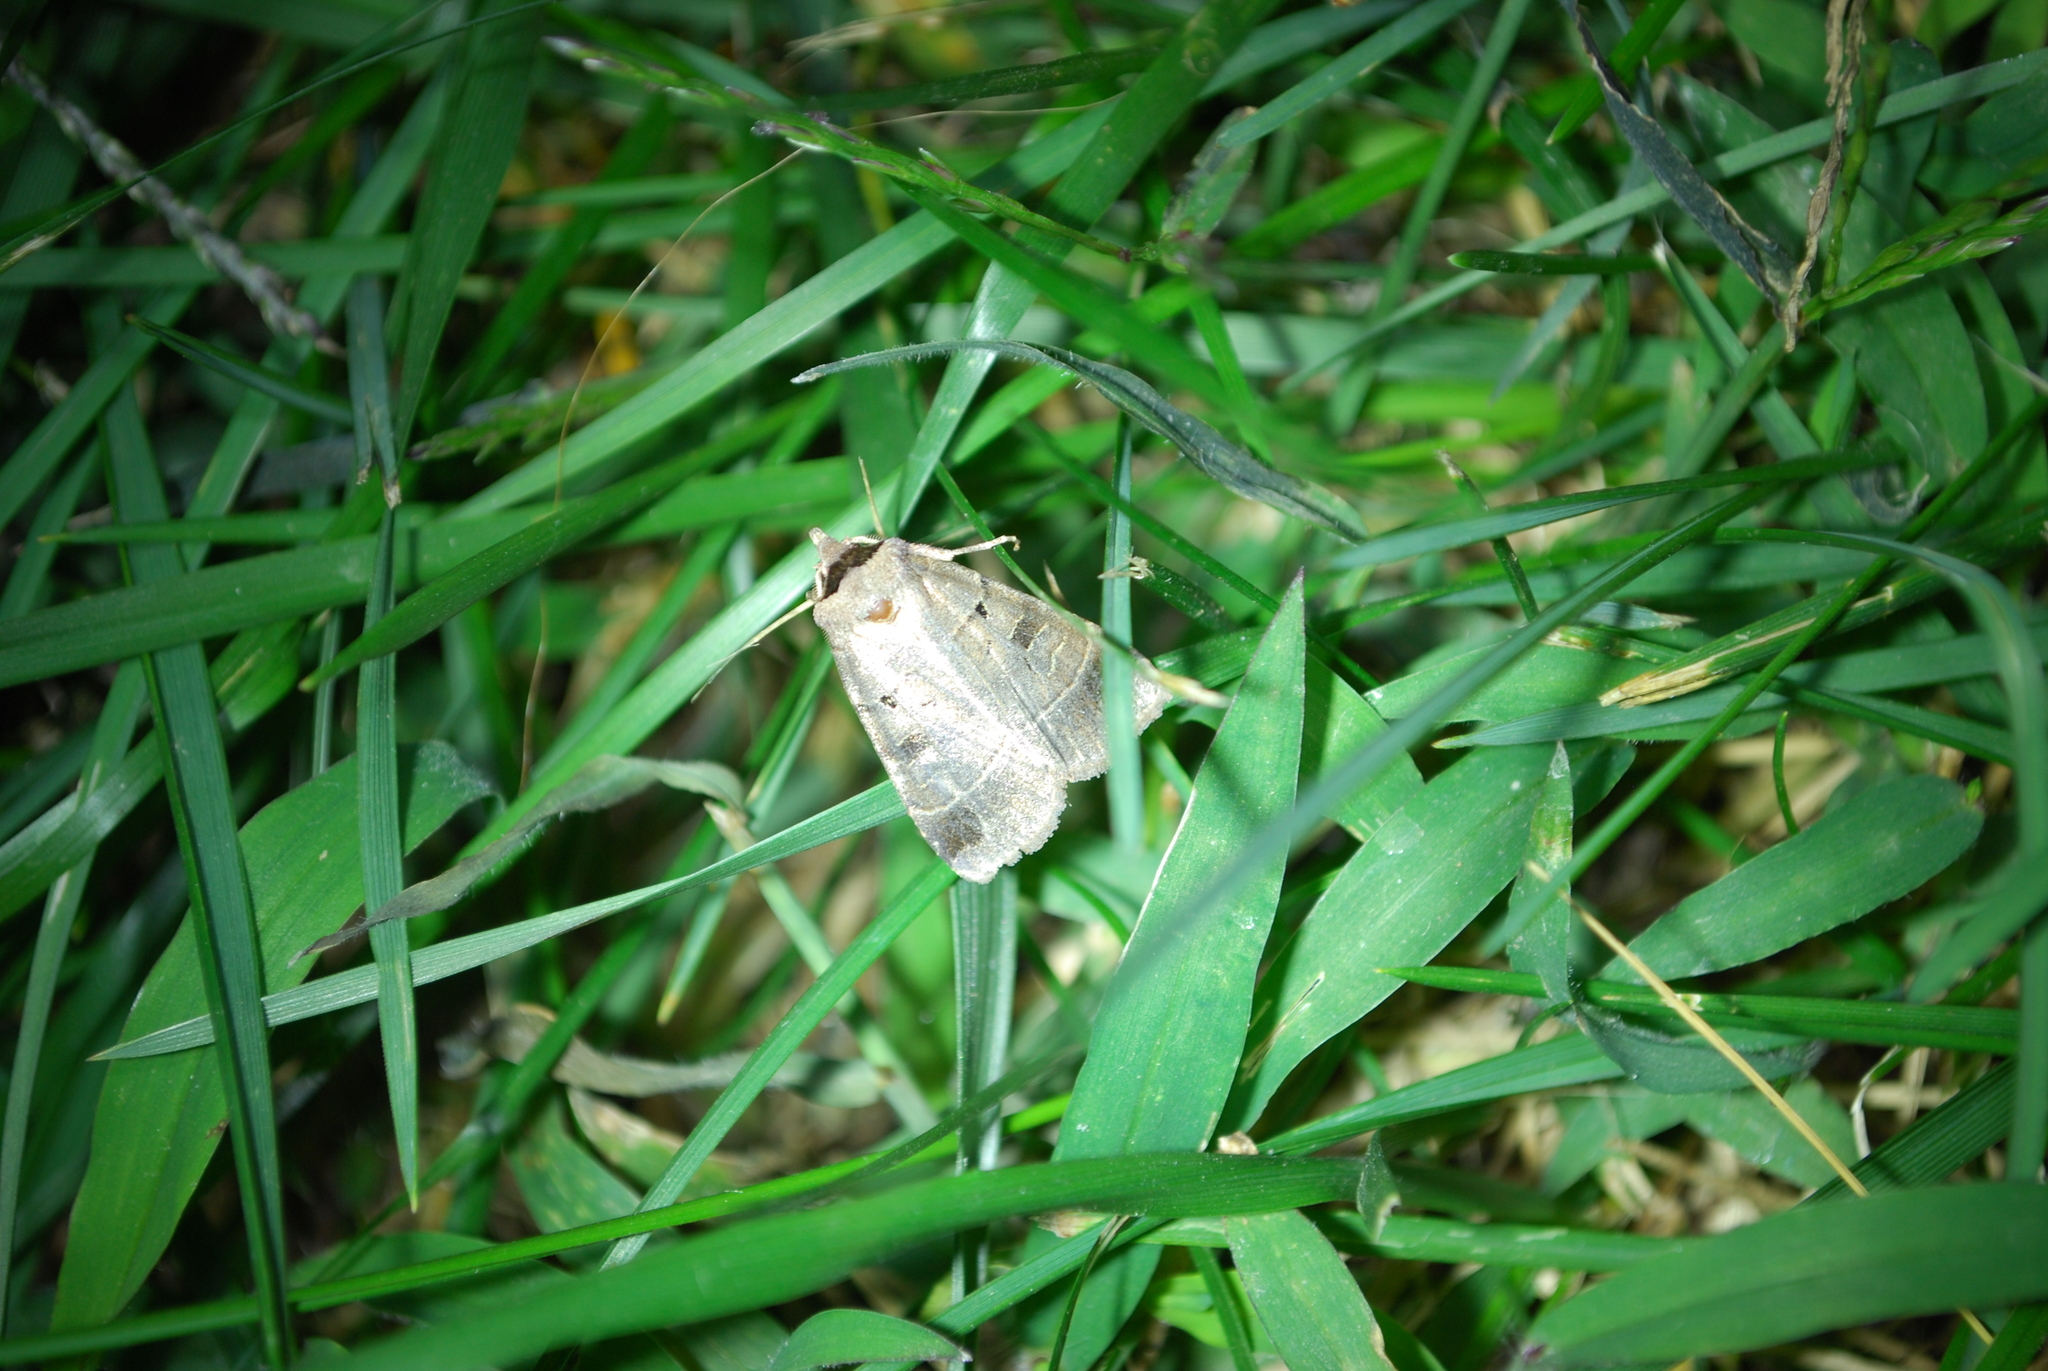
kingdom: Animalia
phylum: Arthropoda
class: Insecta
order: Lepidoptera
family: Noctuidae
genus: Agnorisma
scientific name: Agnorisma badinodis
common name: Pale-banded dart
